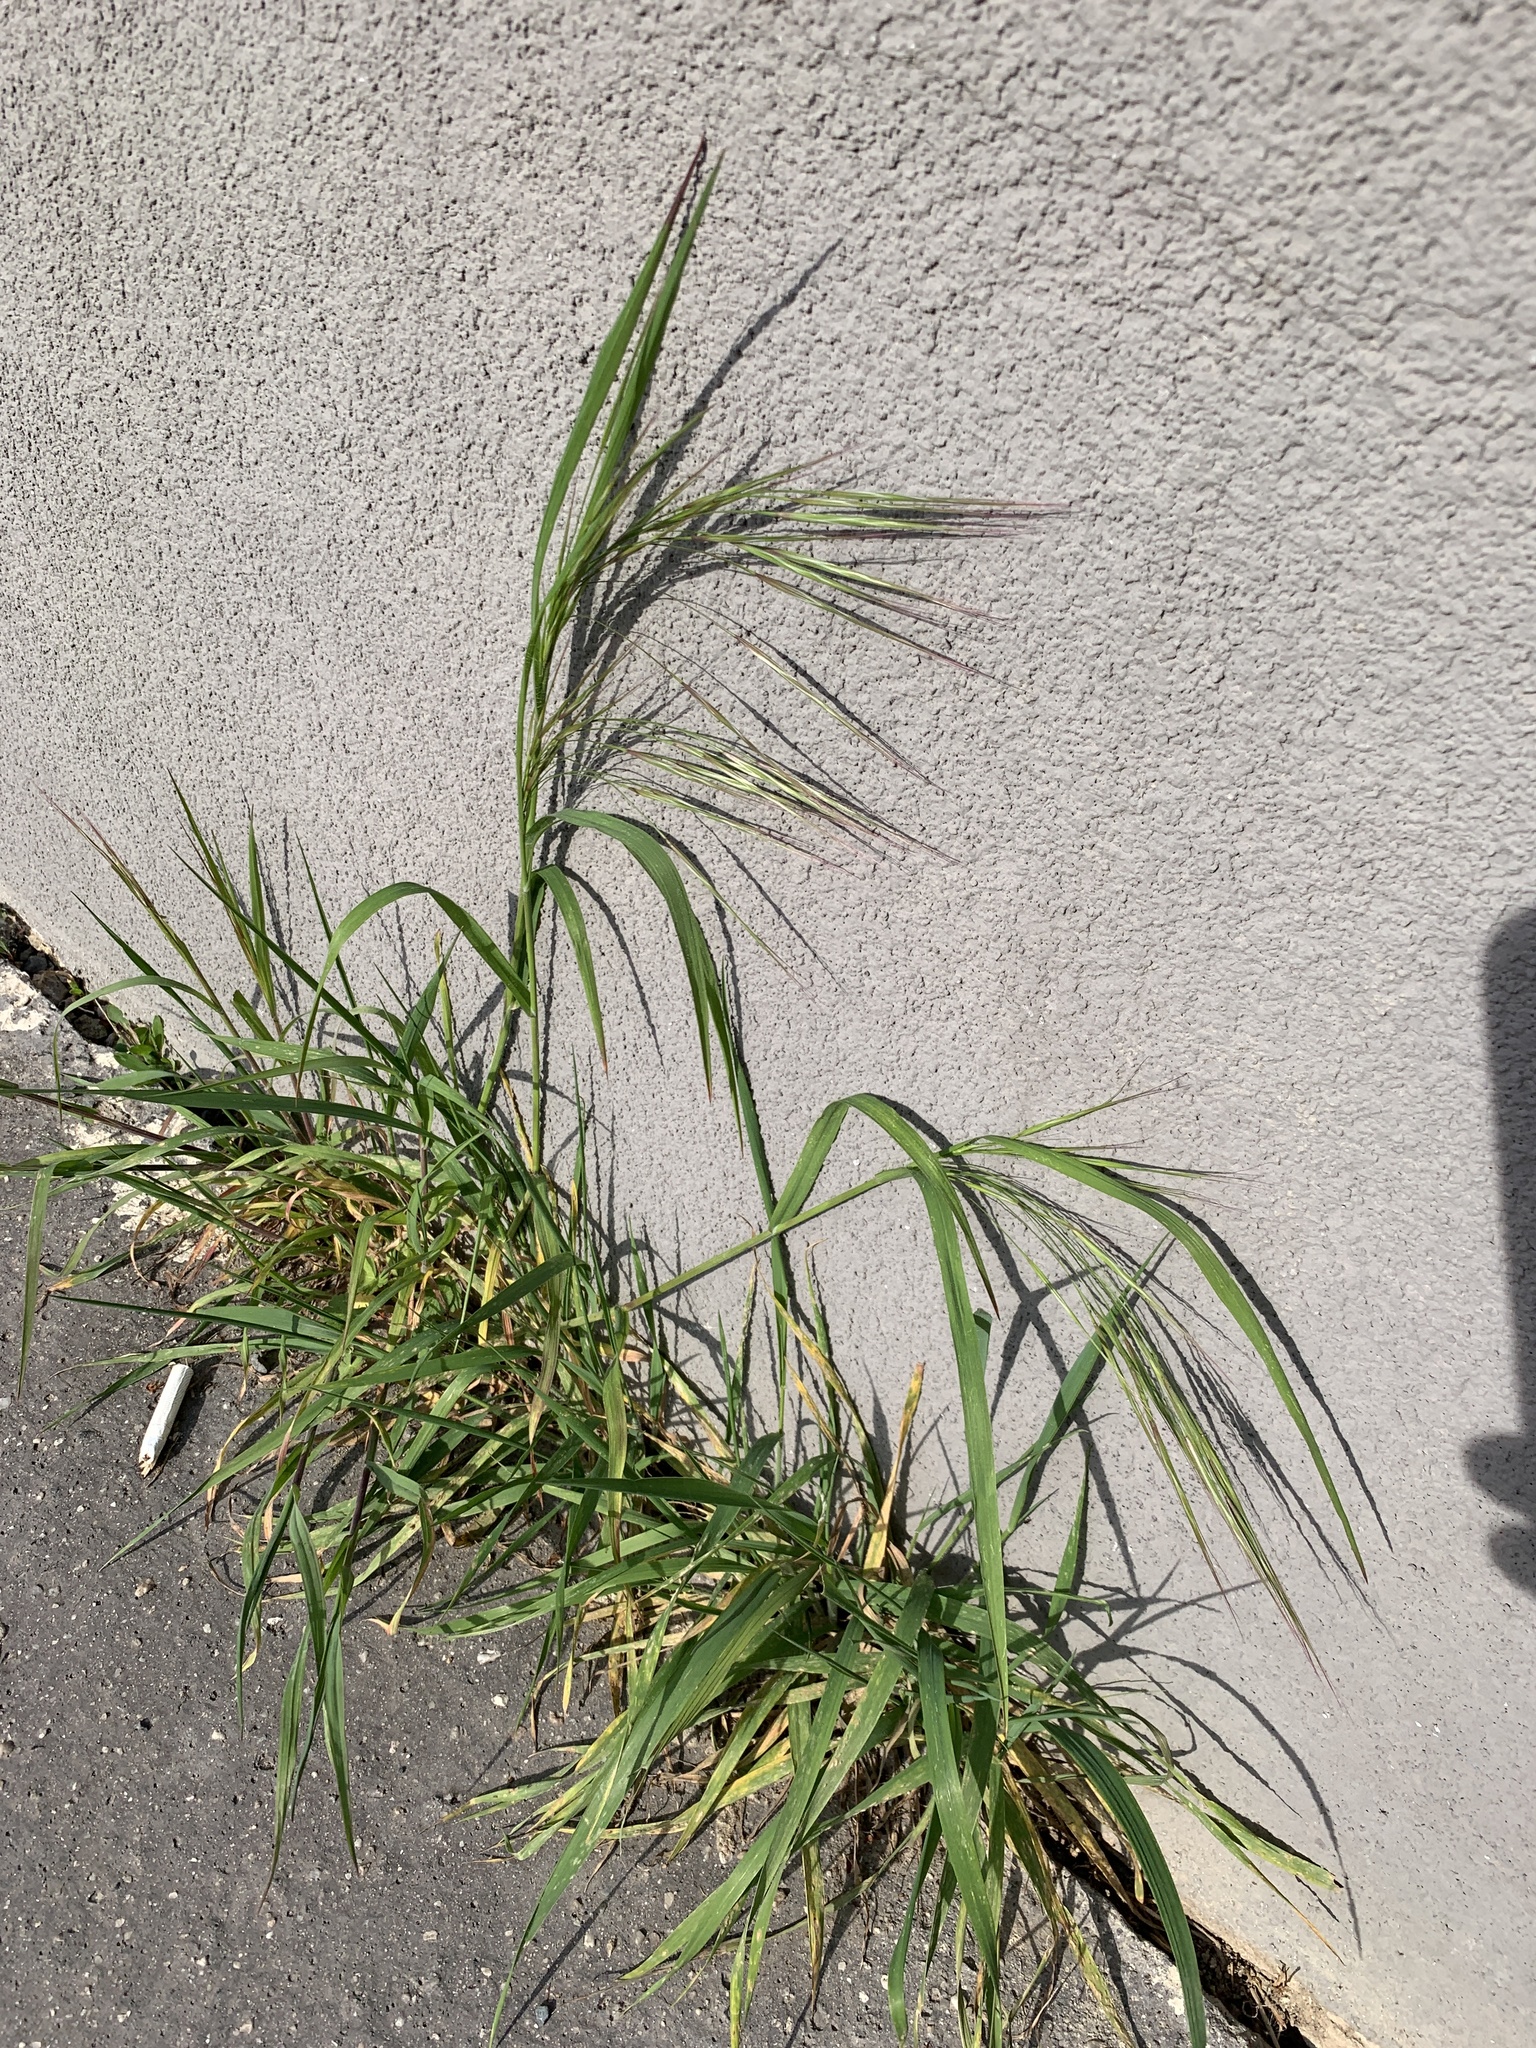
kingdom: Plantae
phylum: Tracheophyta
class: Liliopsida
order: Poales
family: Poaceae
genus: Bromus
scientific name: Bromus sterilis
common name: Poverty brome
